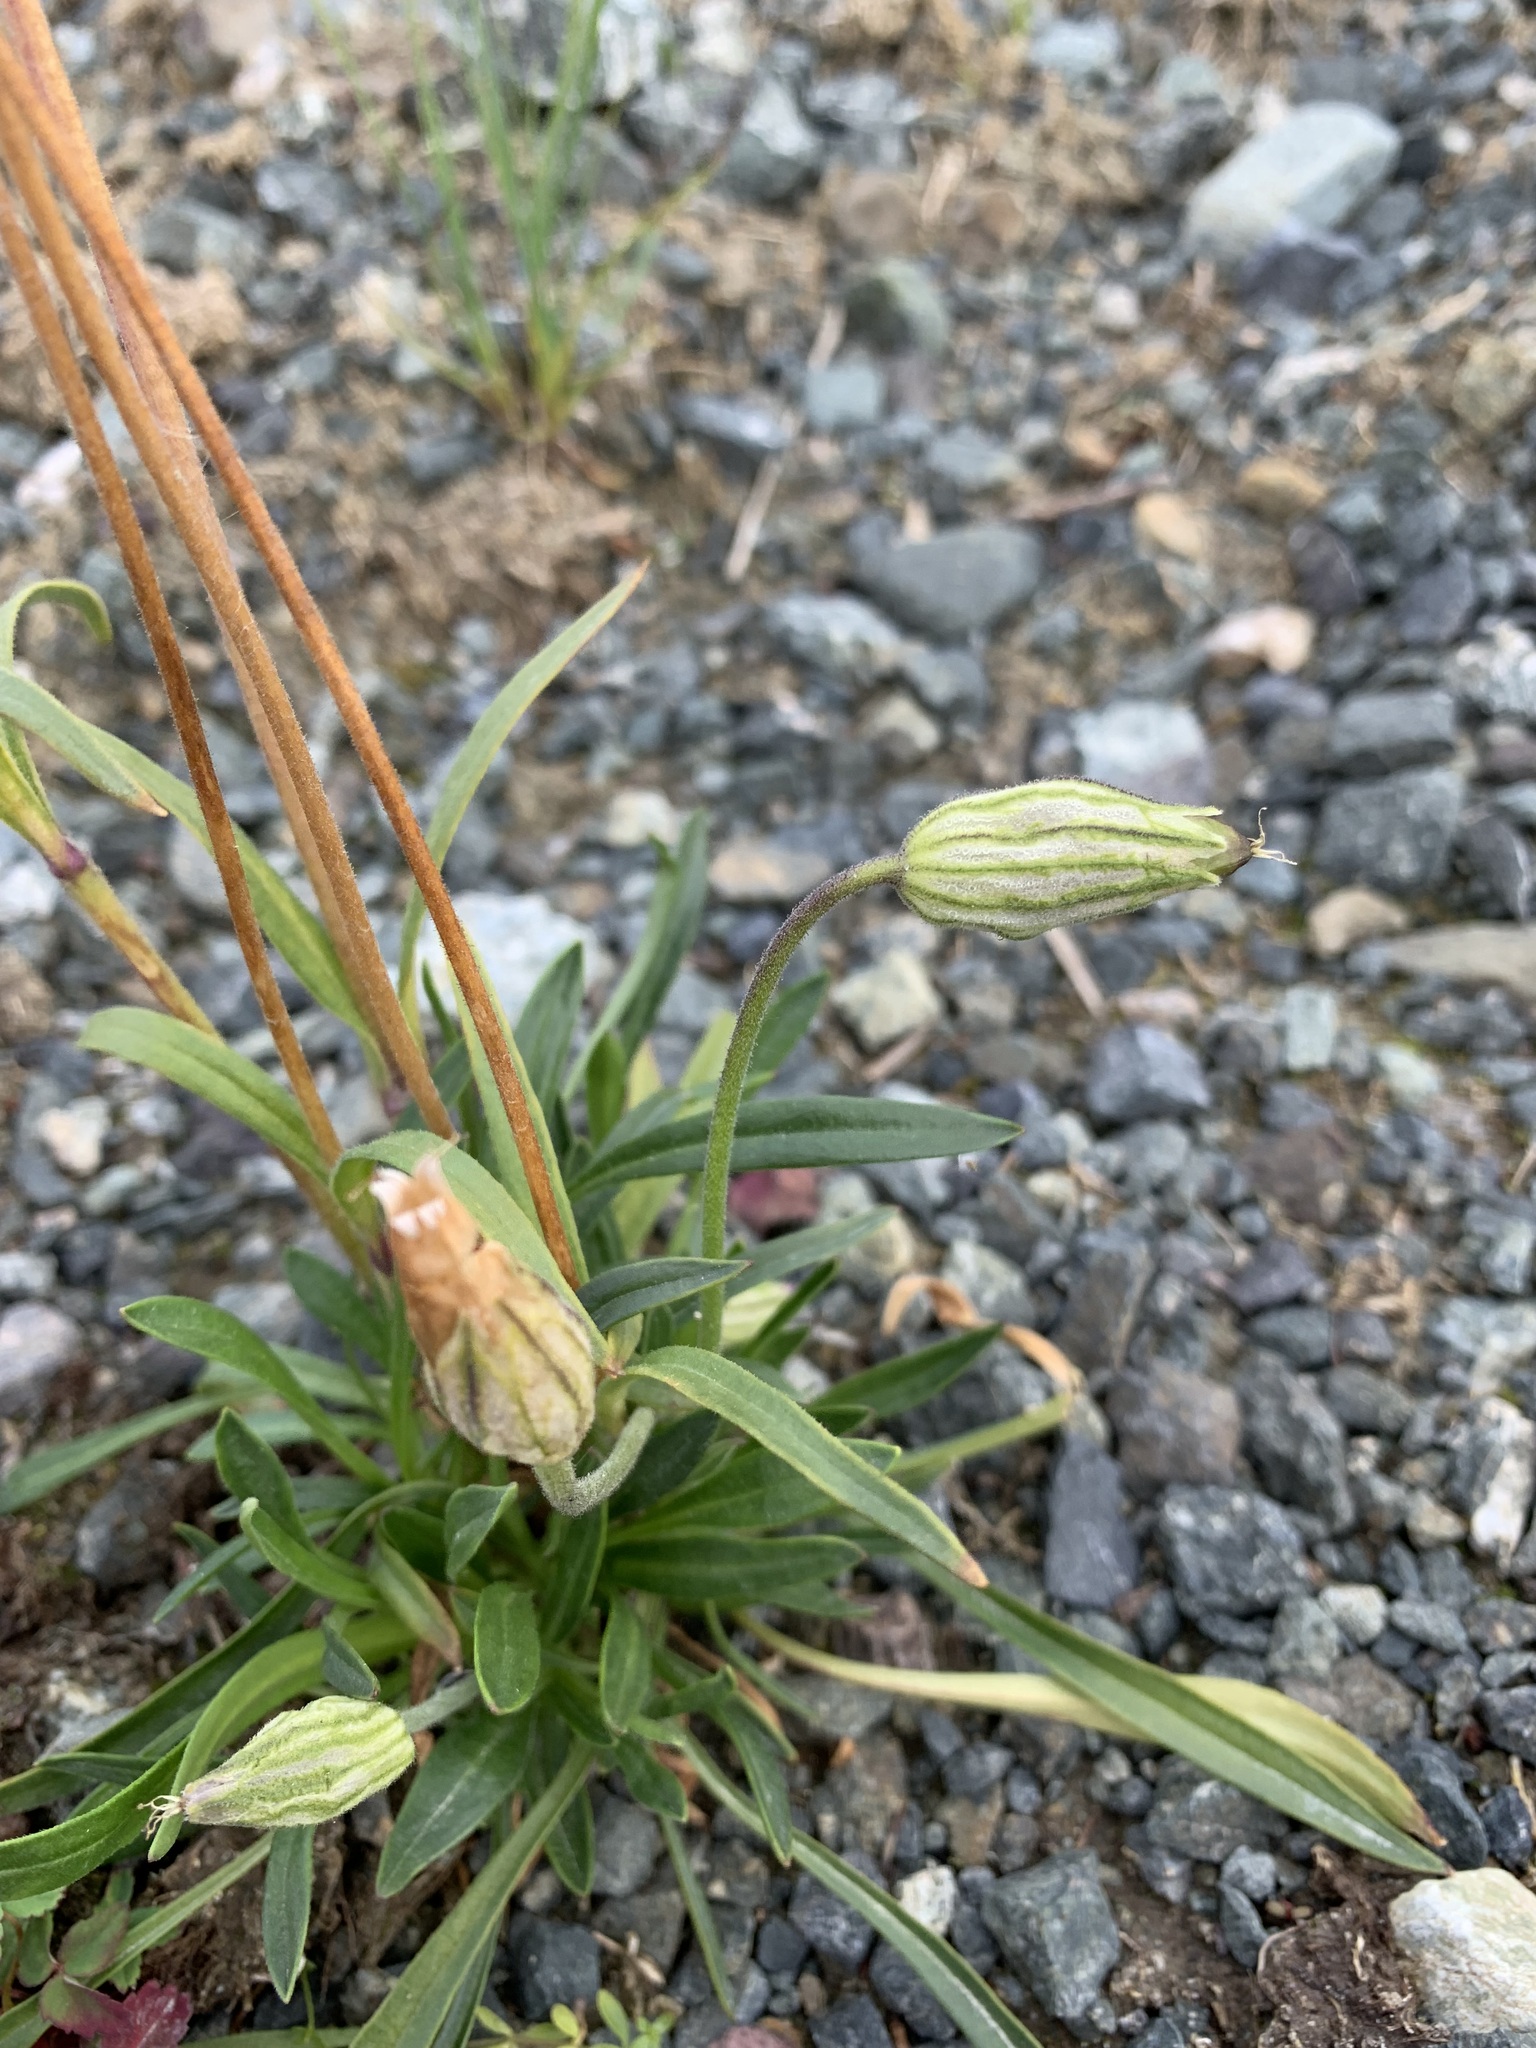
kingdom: Plantae
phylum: Tracheophyta
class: Magnoliopsida
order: Caryophyllales
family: Caryophyllaceae
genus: Silene
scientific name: Silene wahlbergella
